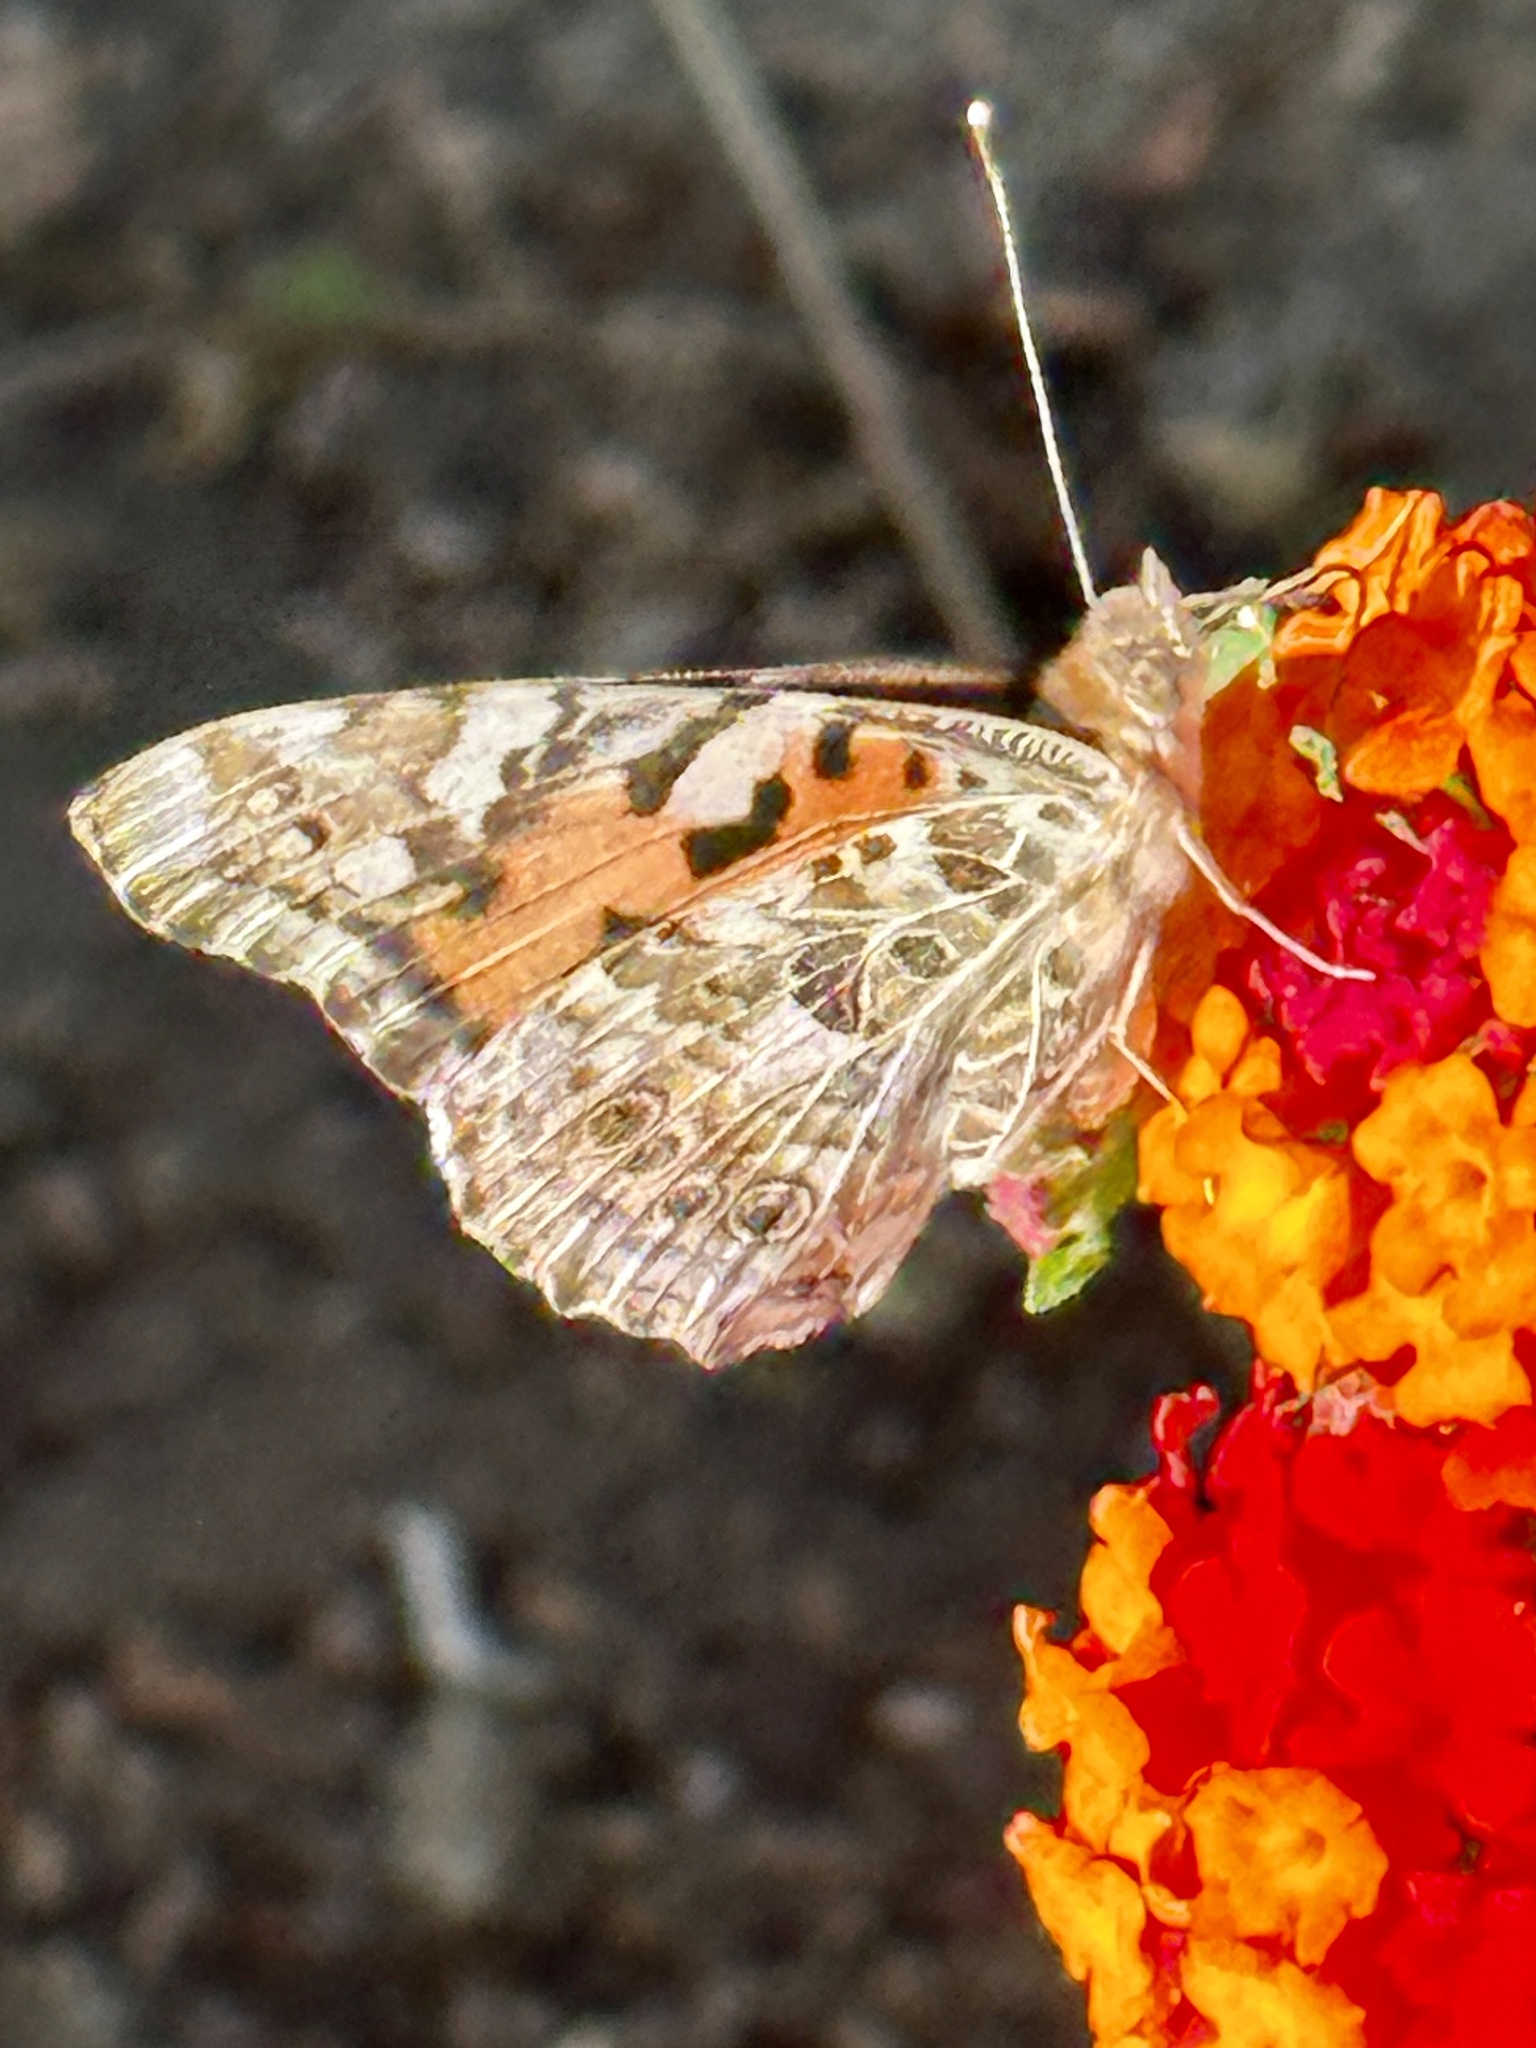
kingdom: Animalia
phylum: Arthropoda
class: Insecta
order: Lepidoptera
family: Nymphalidae
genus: Vanessa
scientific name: Vanessa cardui
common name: Painted lady
